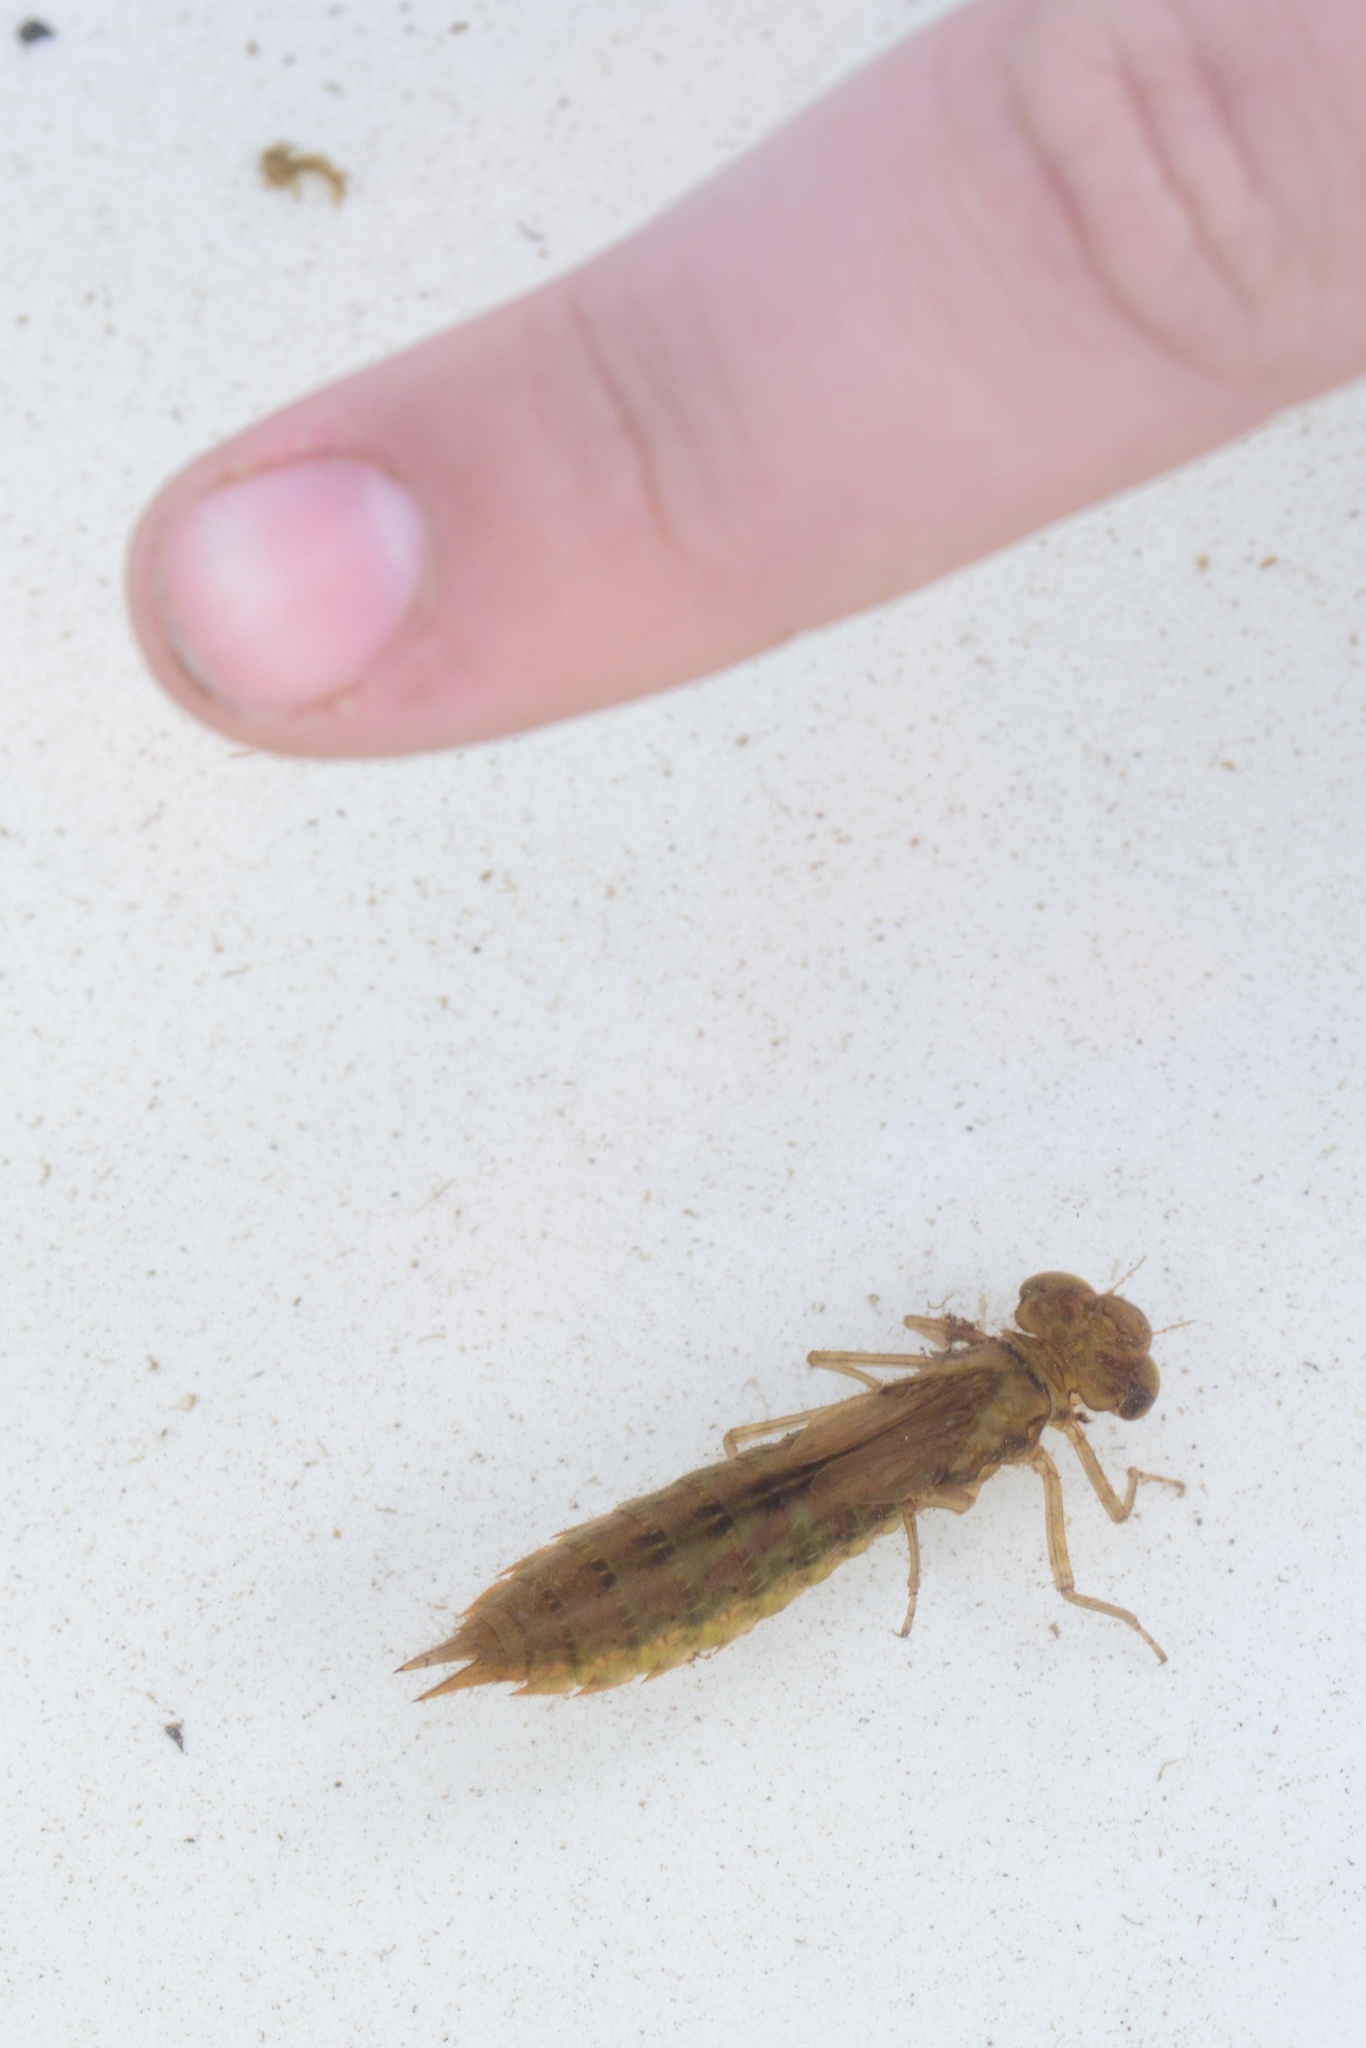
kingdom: Animalia
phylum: Arthropoda
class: Insecta
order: Odonata
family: Aeshnidae
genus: Aeshna
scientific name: Aeshna brevistyla
